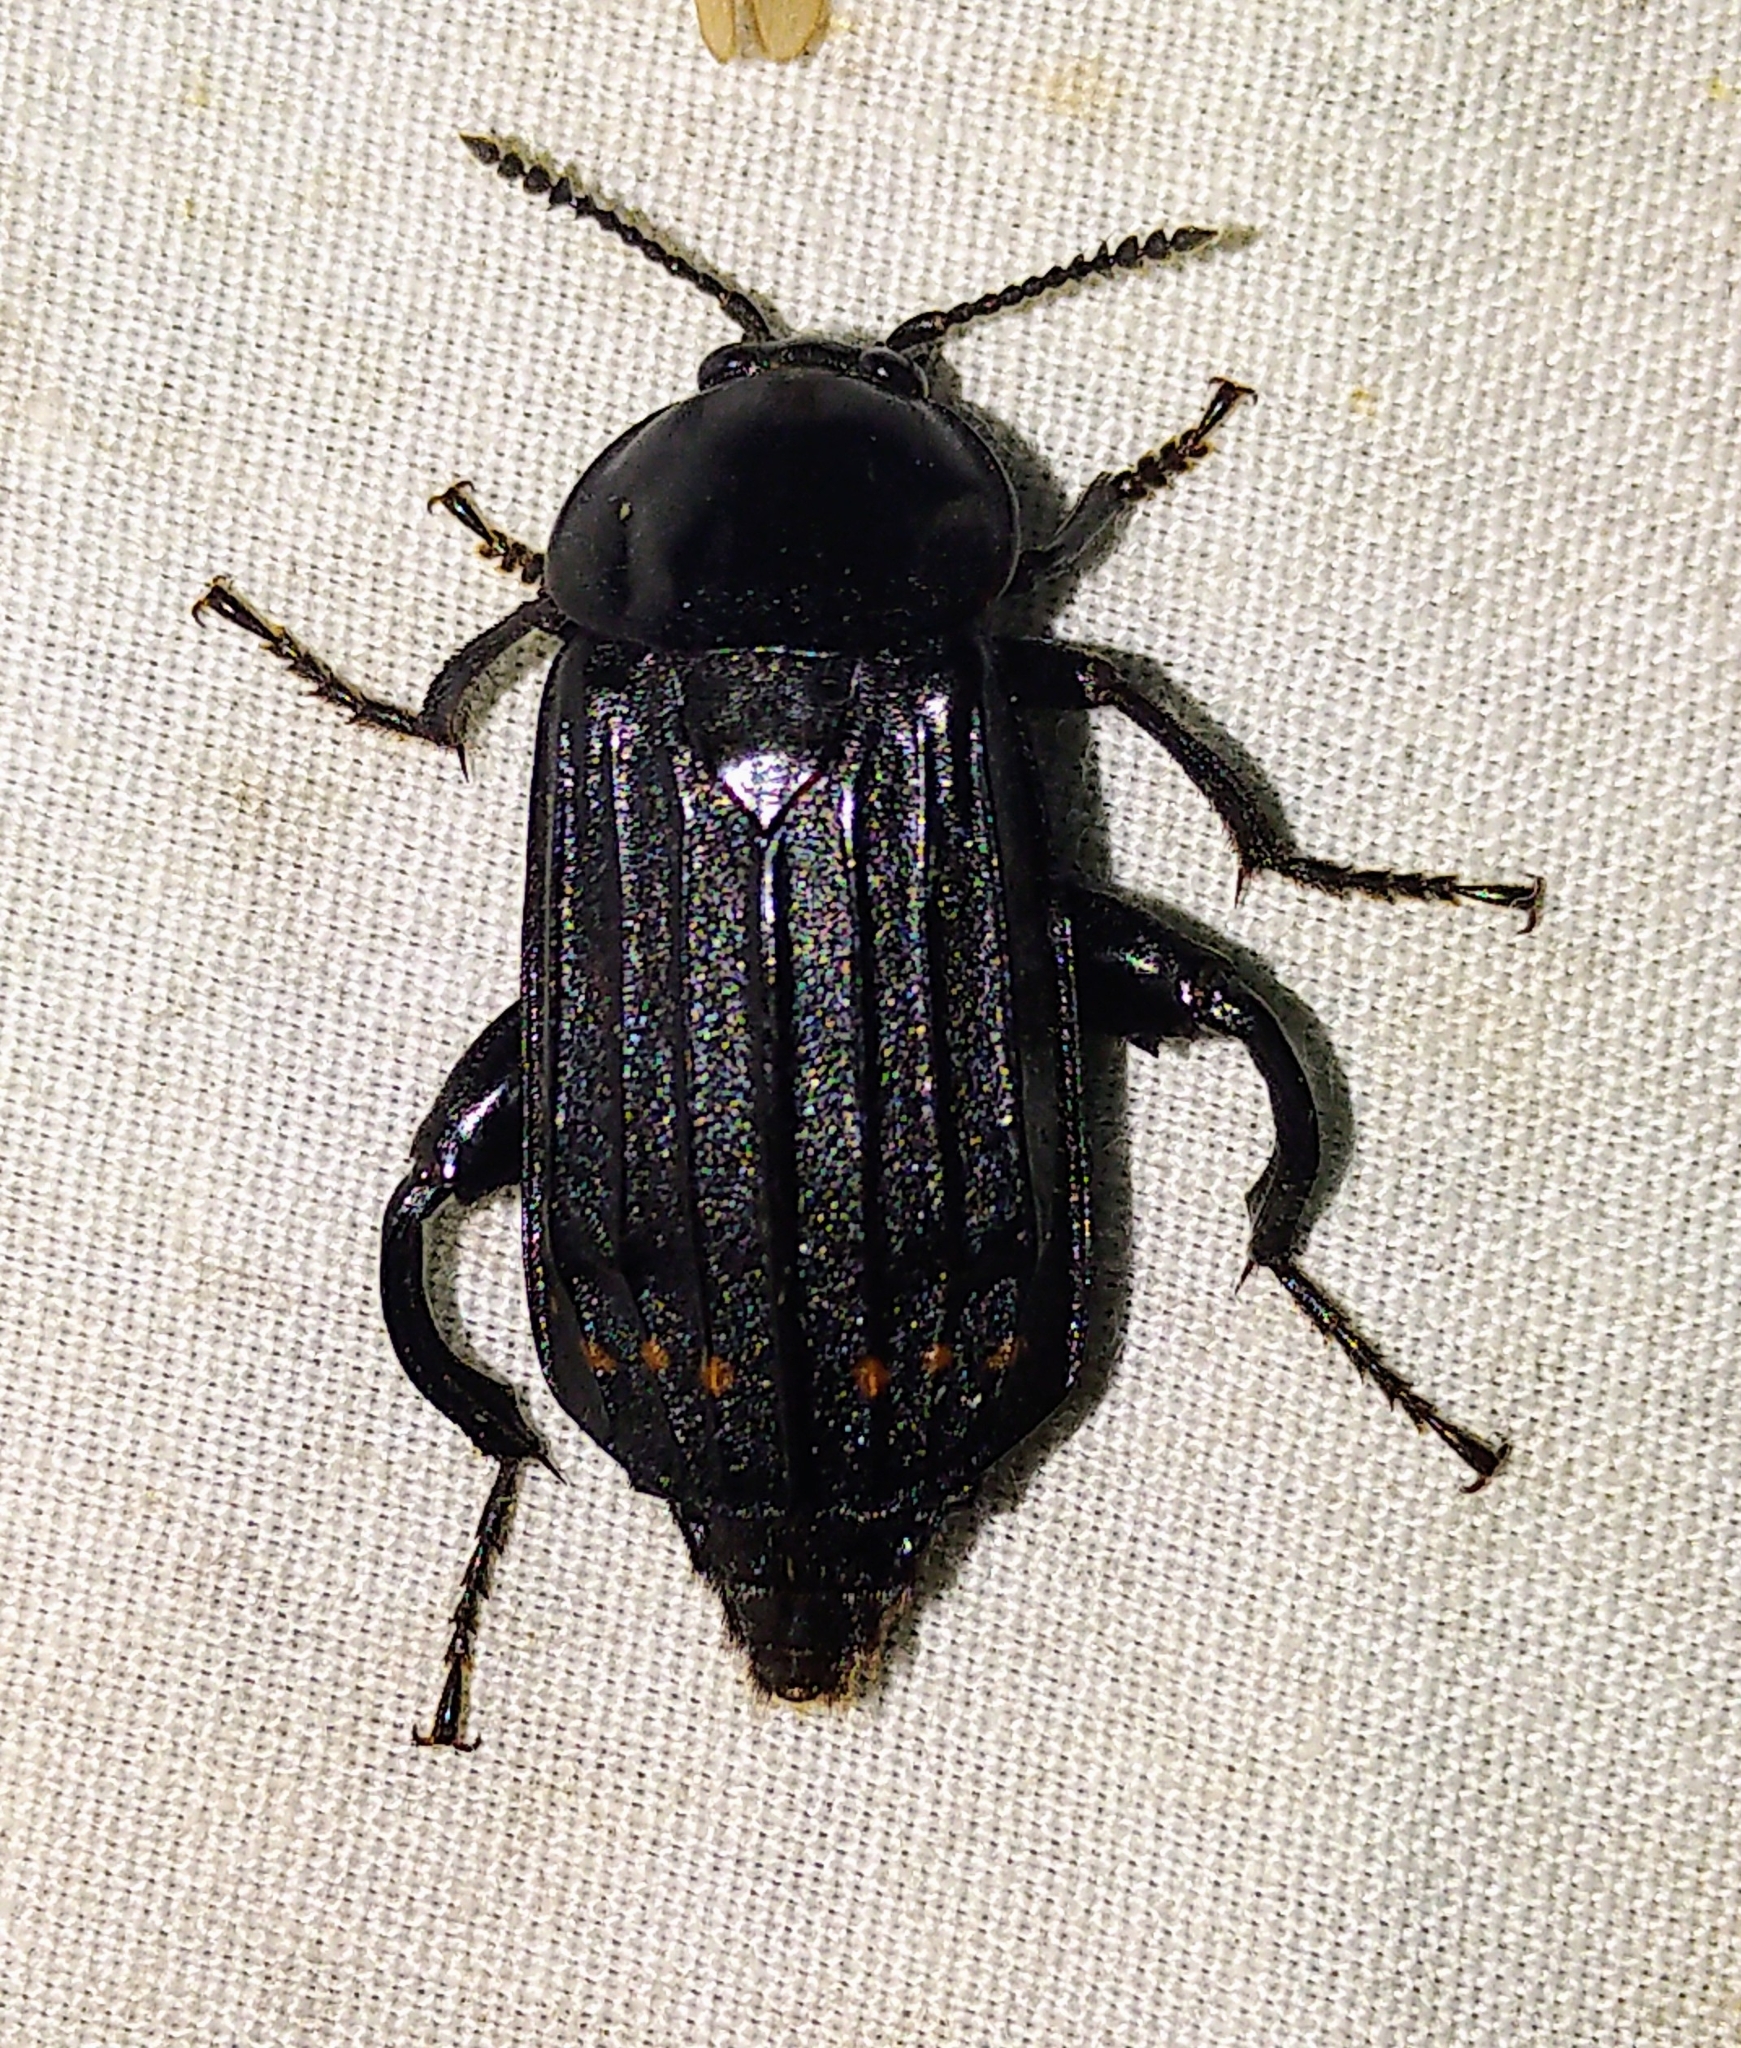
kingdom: Animalia
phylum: Arthropoda
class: Insecta
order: Coleoptera
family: Staphylinidae
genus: Necrodes
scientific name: Necrodes surinamensis
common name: Red-lined carrion beetle
